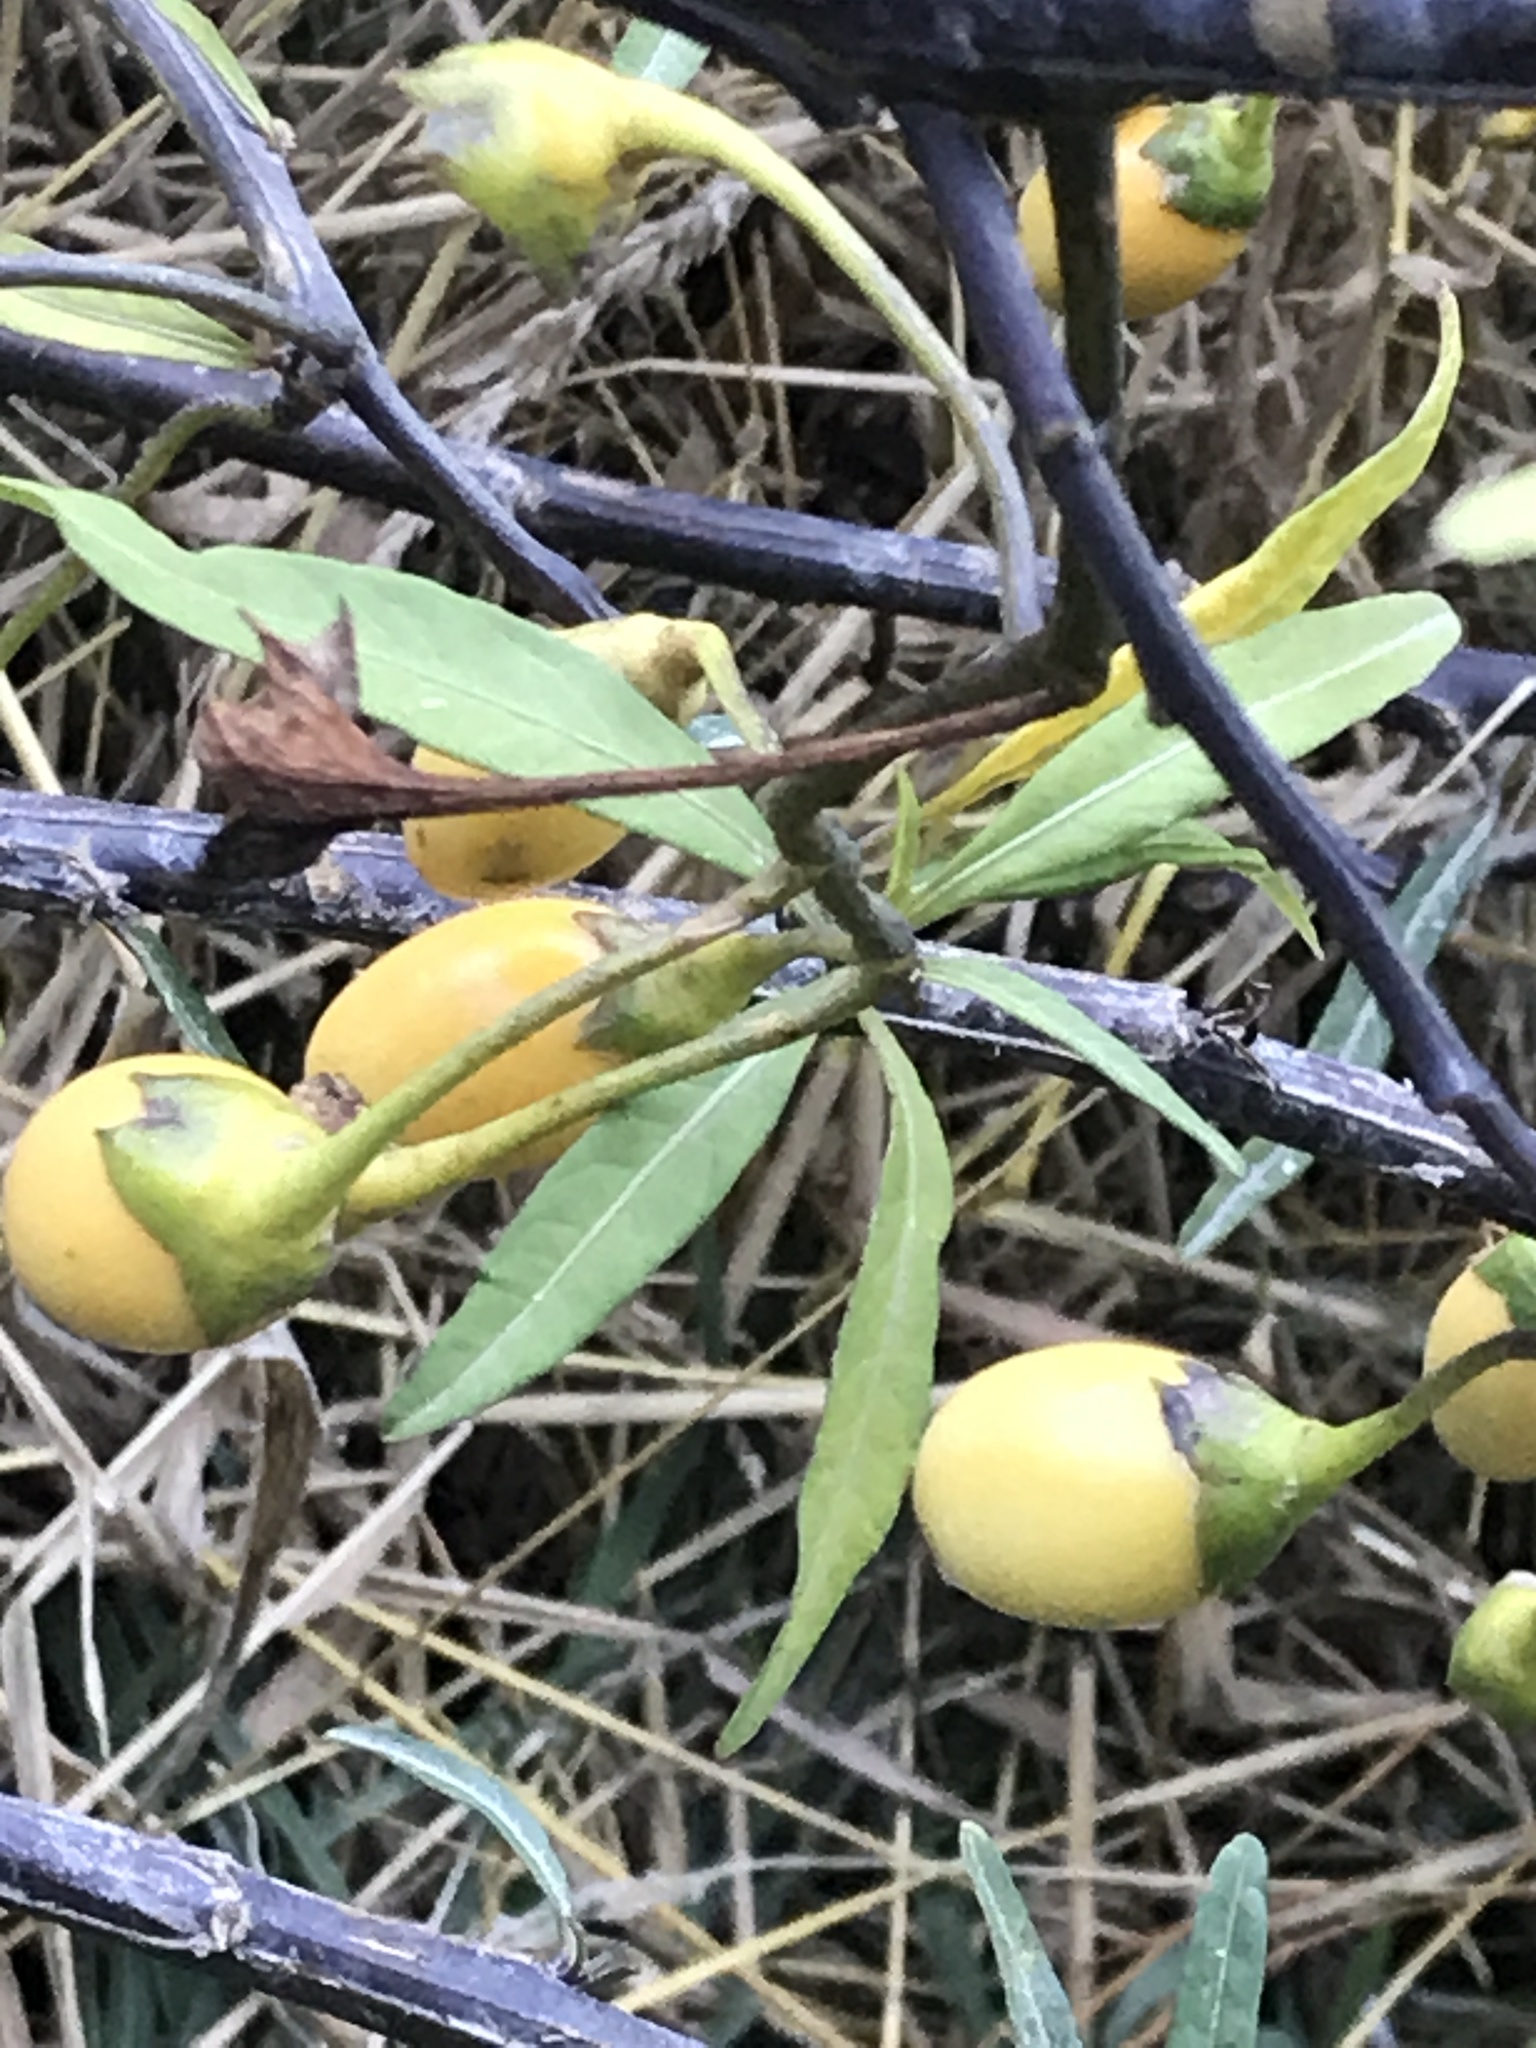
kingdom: Plantae
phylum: Tracheophyta
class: Magnoliopsida
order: Solanales
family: Solanaceae
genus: Solanum
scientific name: Solanum laciniatum
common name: Kangaroo-apple
